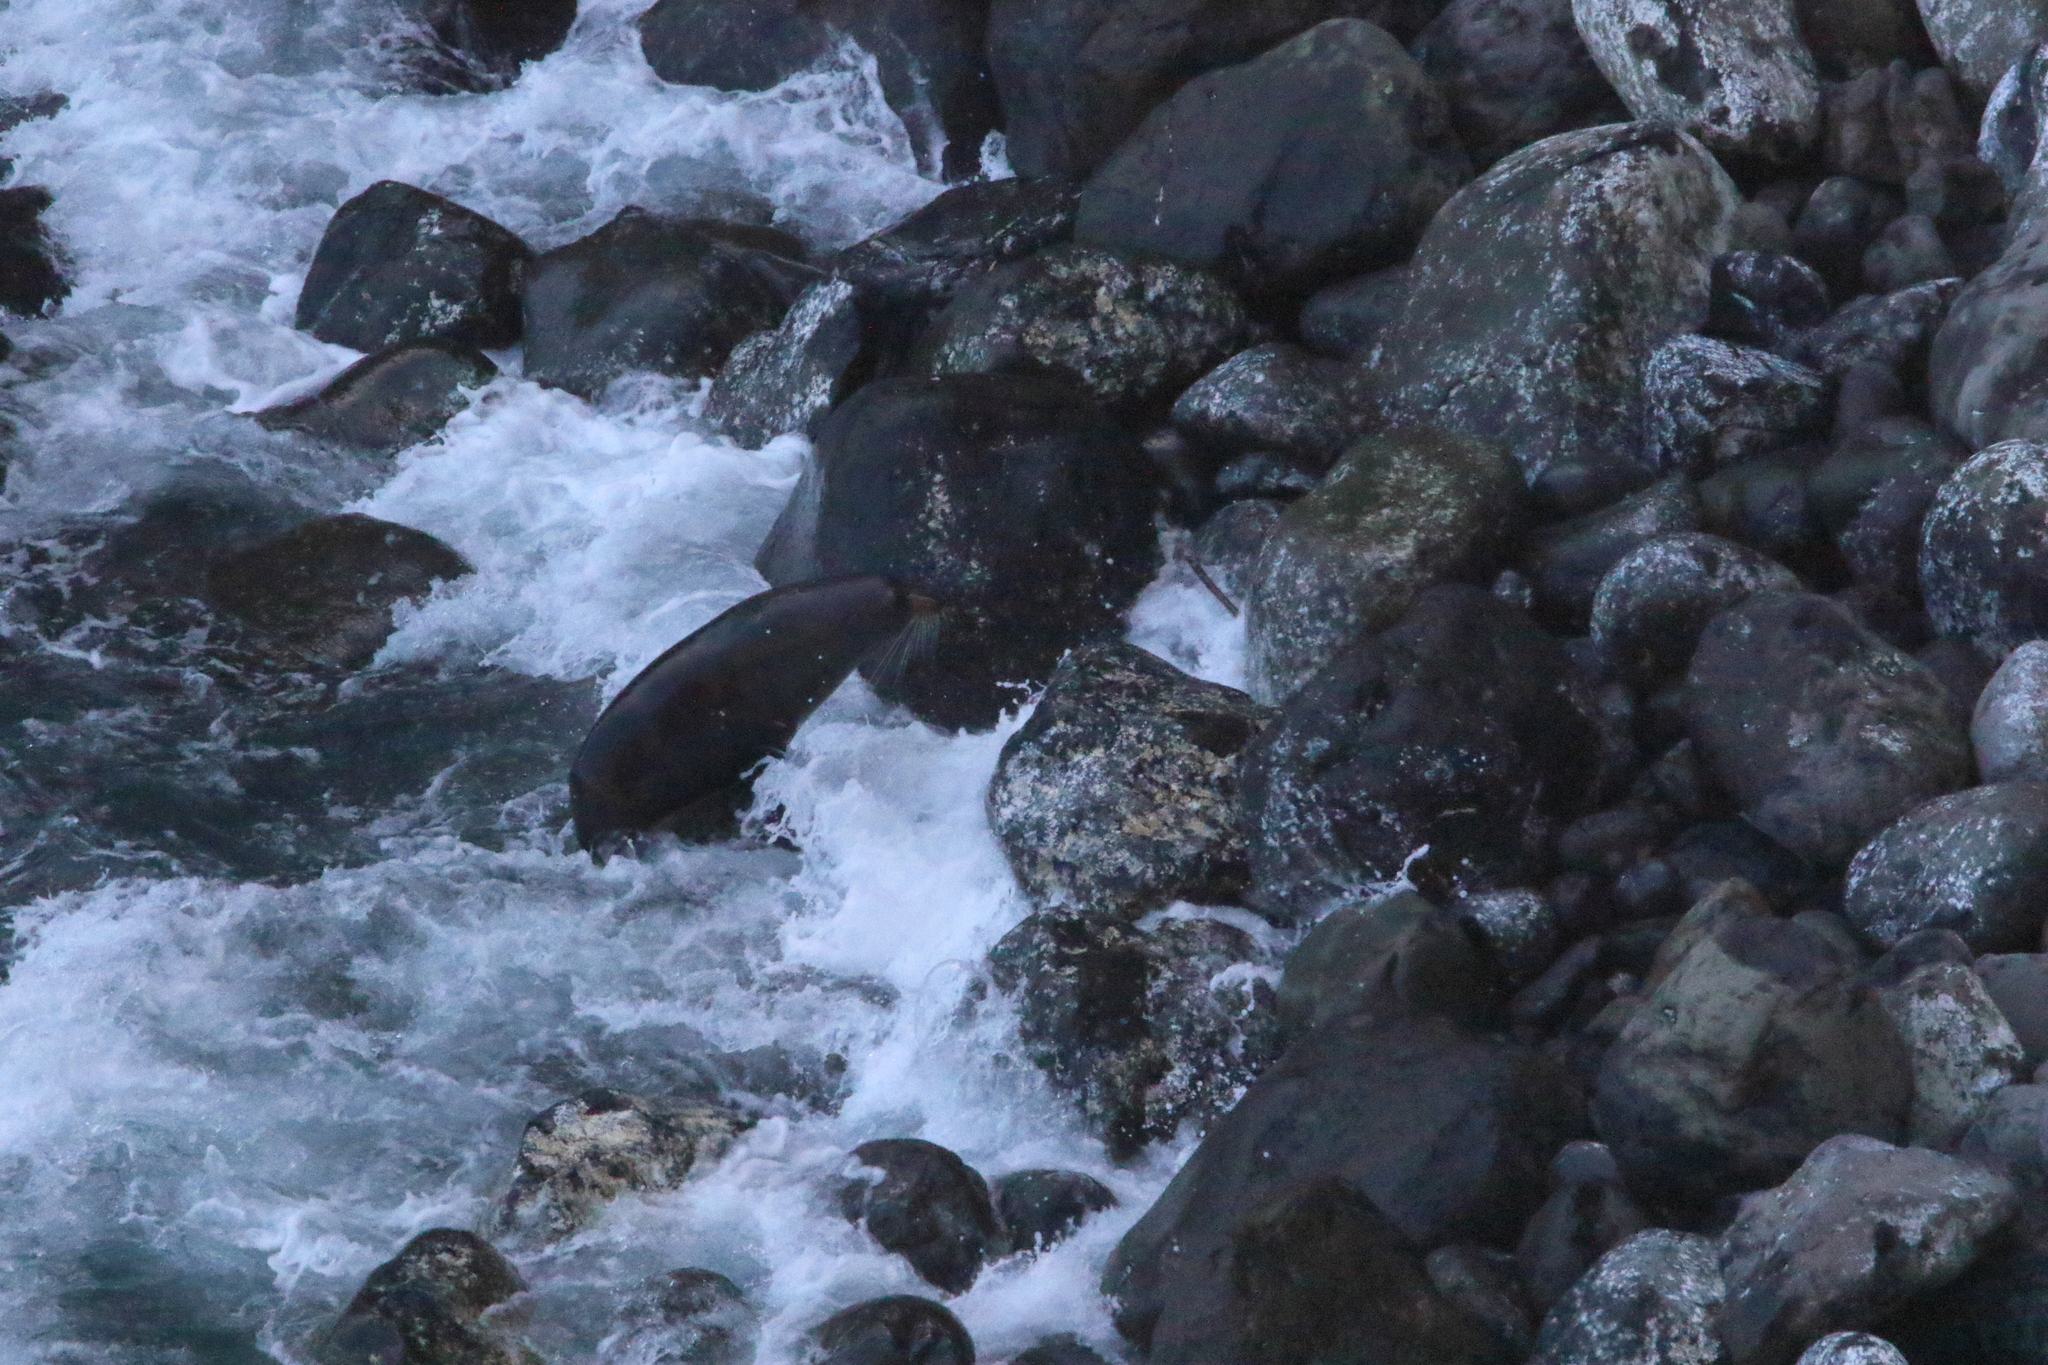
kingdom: Animalia
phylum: Chordata
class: Mammalia
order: Carnivora
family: Otariidae
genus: Arctocephalus
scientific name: Arctocephalus forsteri
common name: New zealand fur seal
